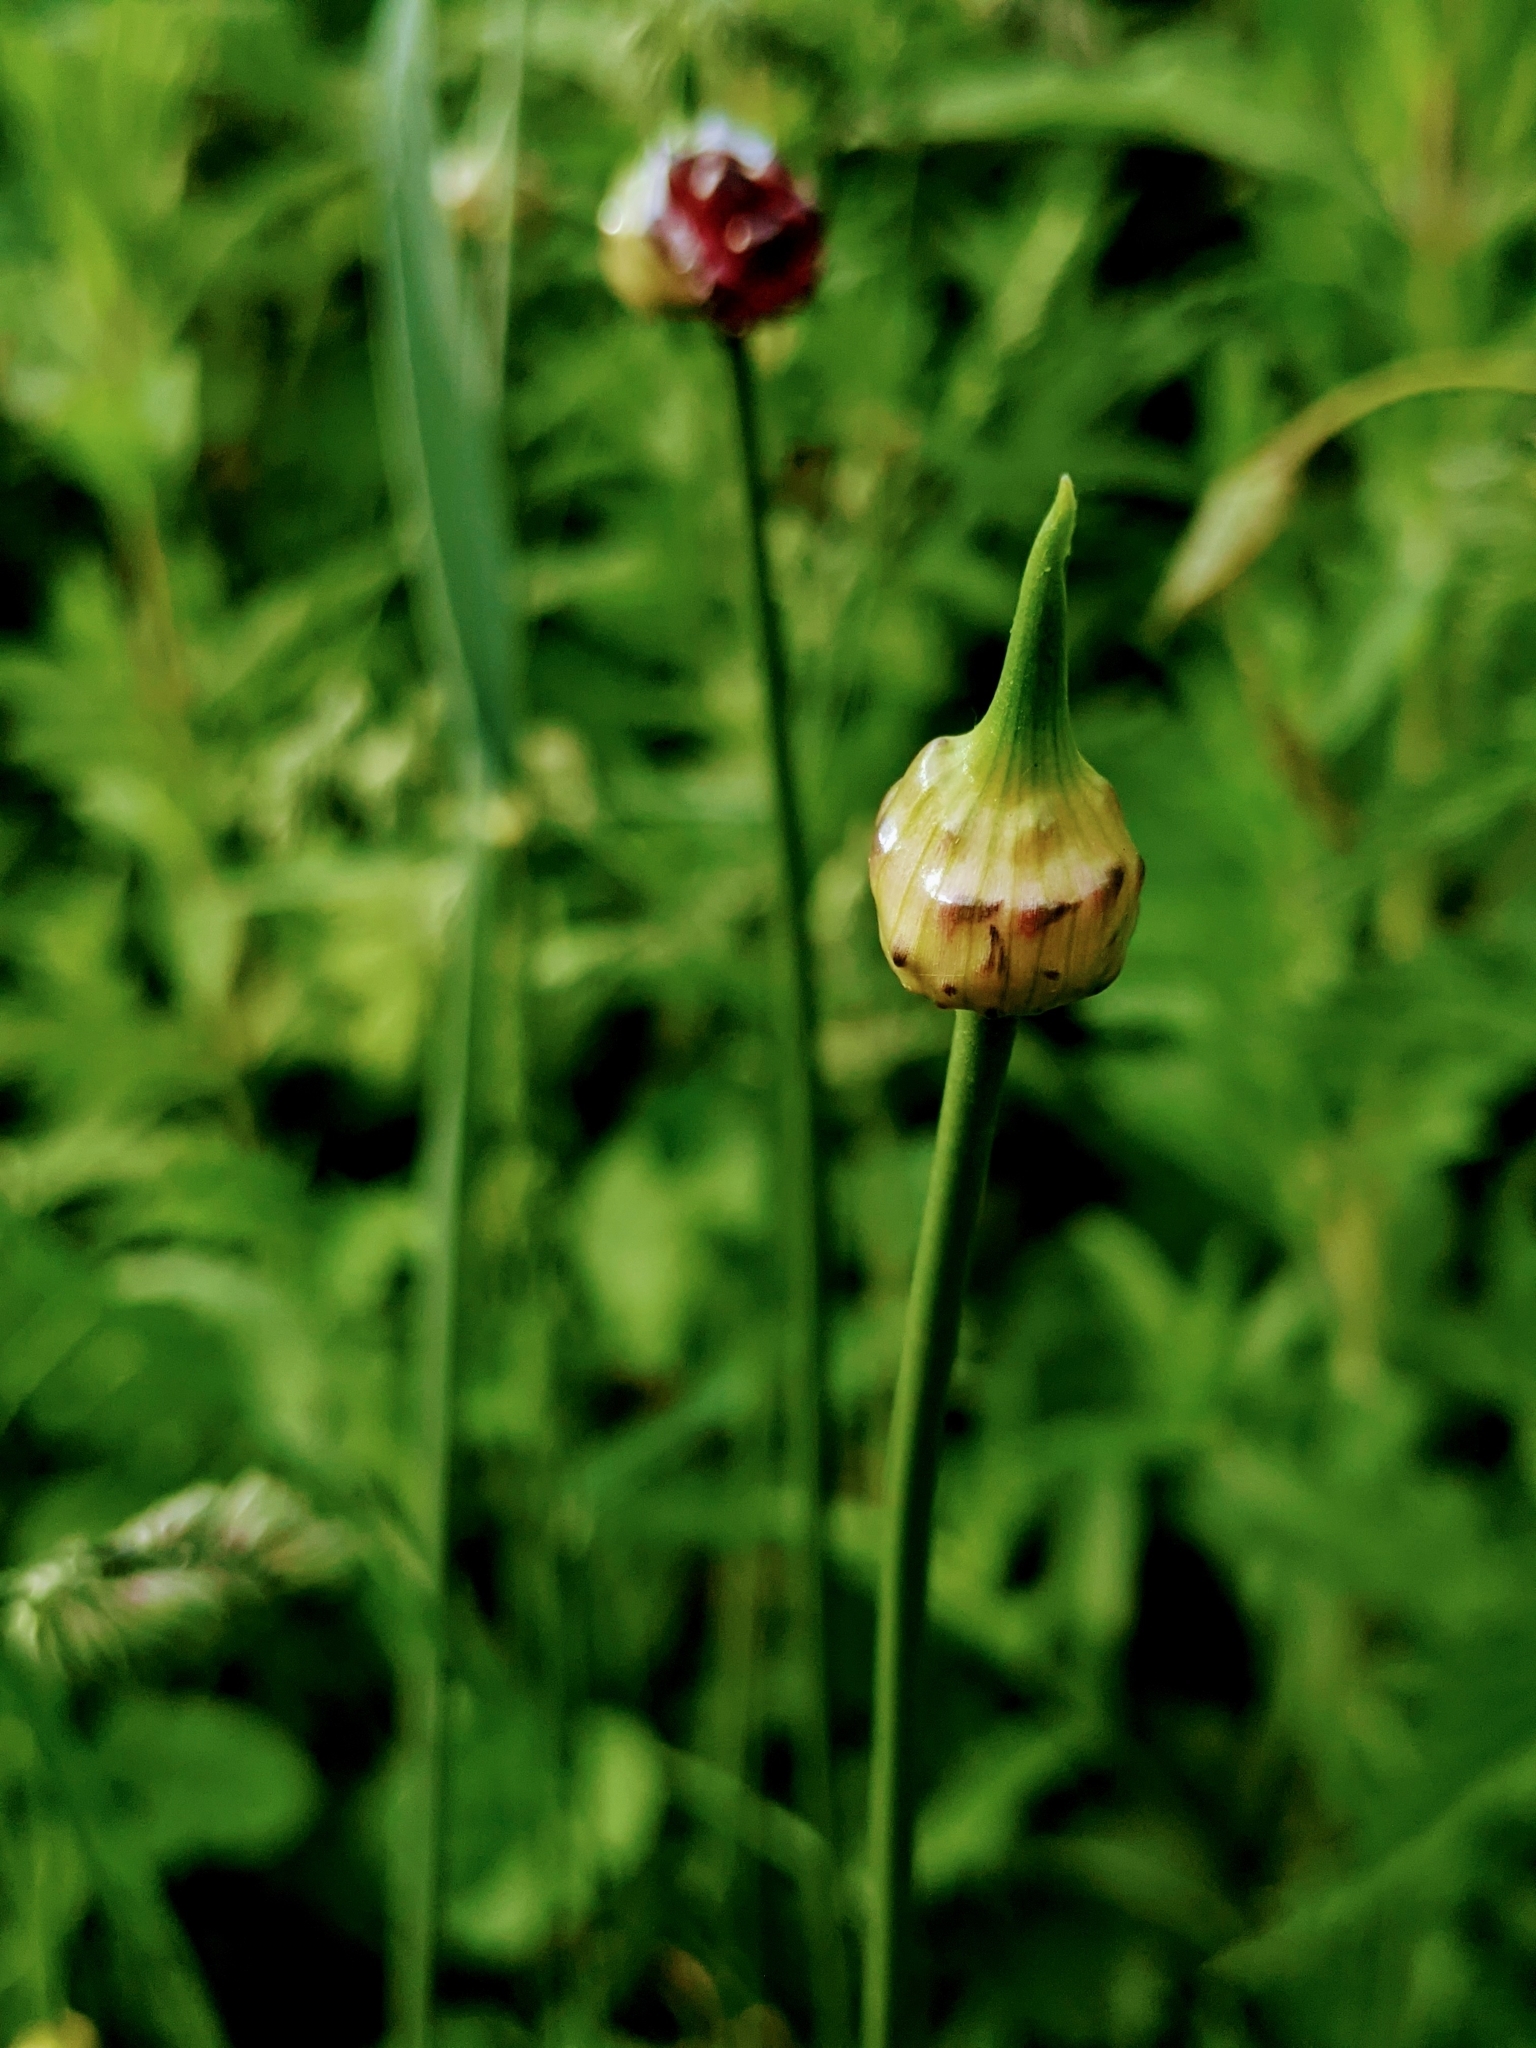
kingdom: Plantae
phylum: Tracheophyta
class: Liliopsida
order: Asparagales
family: Amaryllidaceae
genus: Allium
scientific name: Allium vineale
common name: Crow garlic
